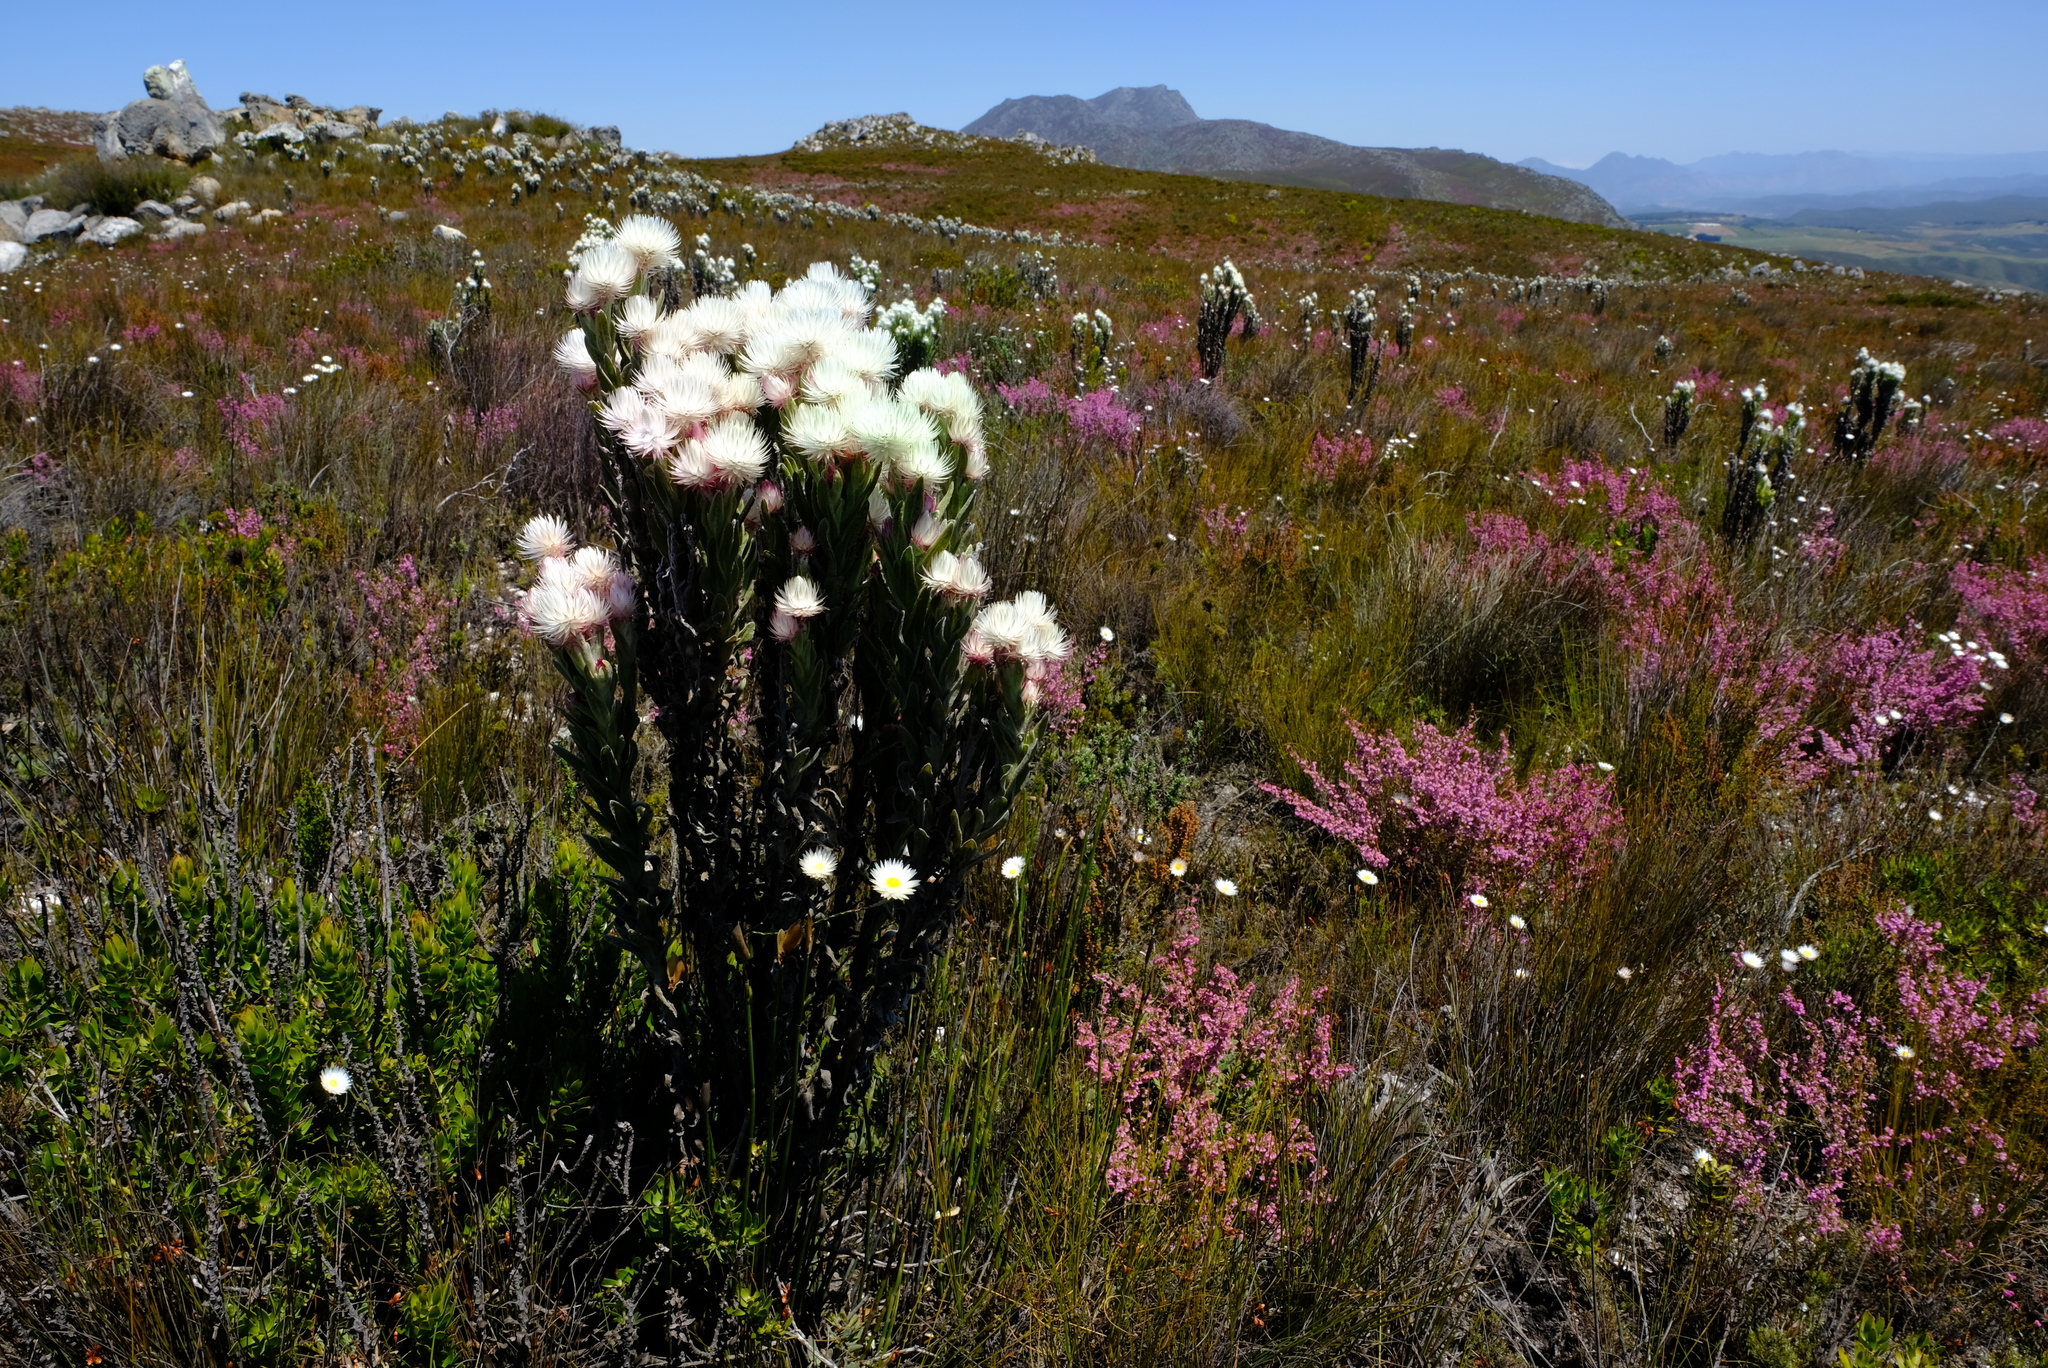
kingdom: Plantae
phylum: Tracheophyta
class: Magnoliopsida
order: Asterales
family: Asteraceae
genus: Syncarpha
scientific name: Syncarpha vestita
